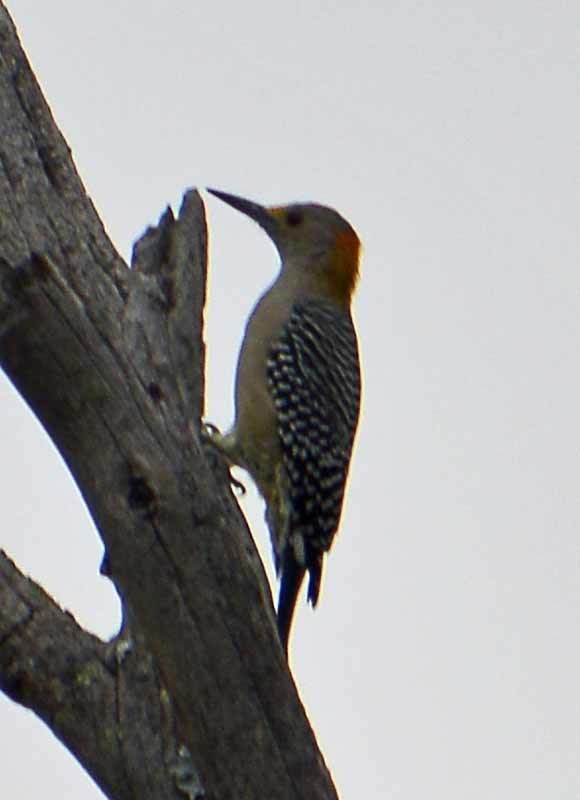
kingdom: Animalia
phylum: Chordata
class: Aves
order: Piciformes
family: Picidae
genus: Melanerpes
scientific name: Melanerpes aurifrons
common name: Golden-fronted woodpecker
